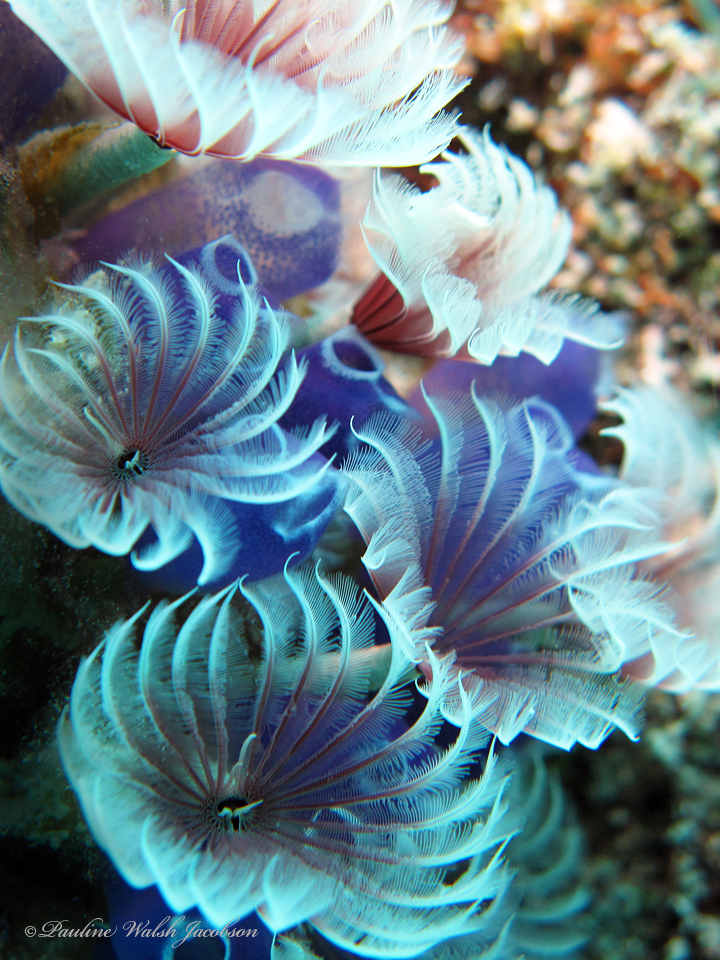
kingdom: Animalia
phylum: Annelida
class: Polychaeta
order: Sabellida
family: Sabellidae
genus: Bispira
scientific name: Bispira brunnea
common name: Social feather duster
